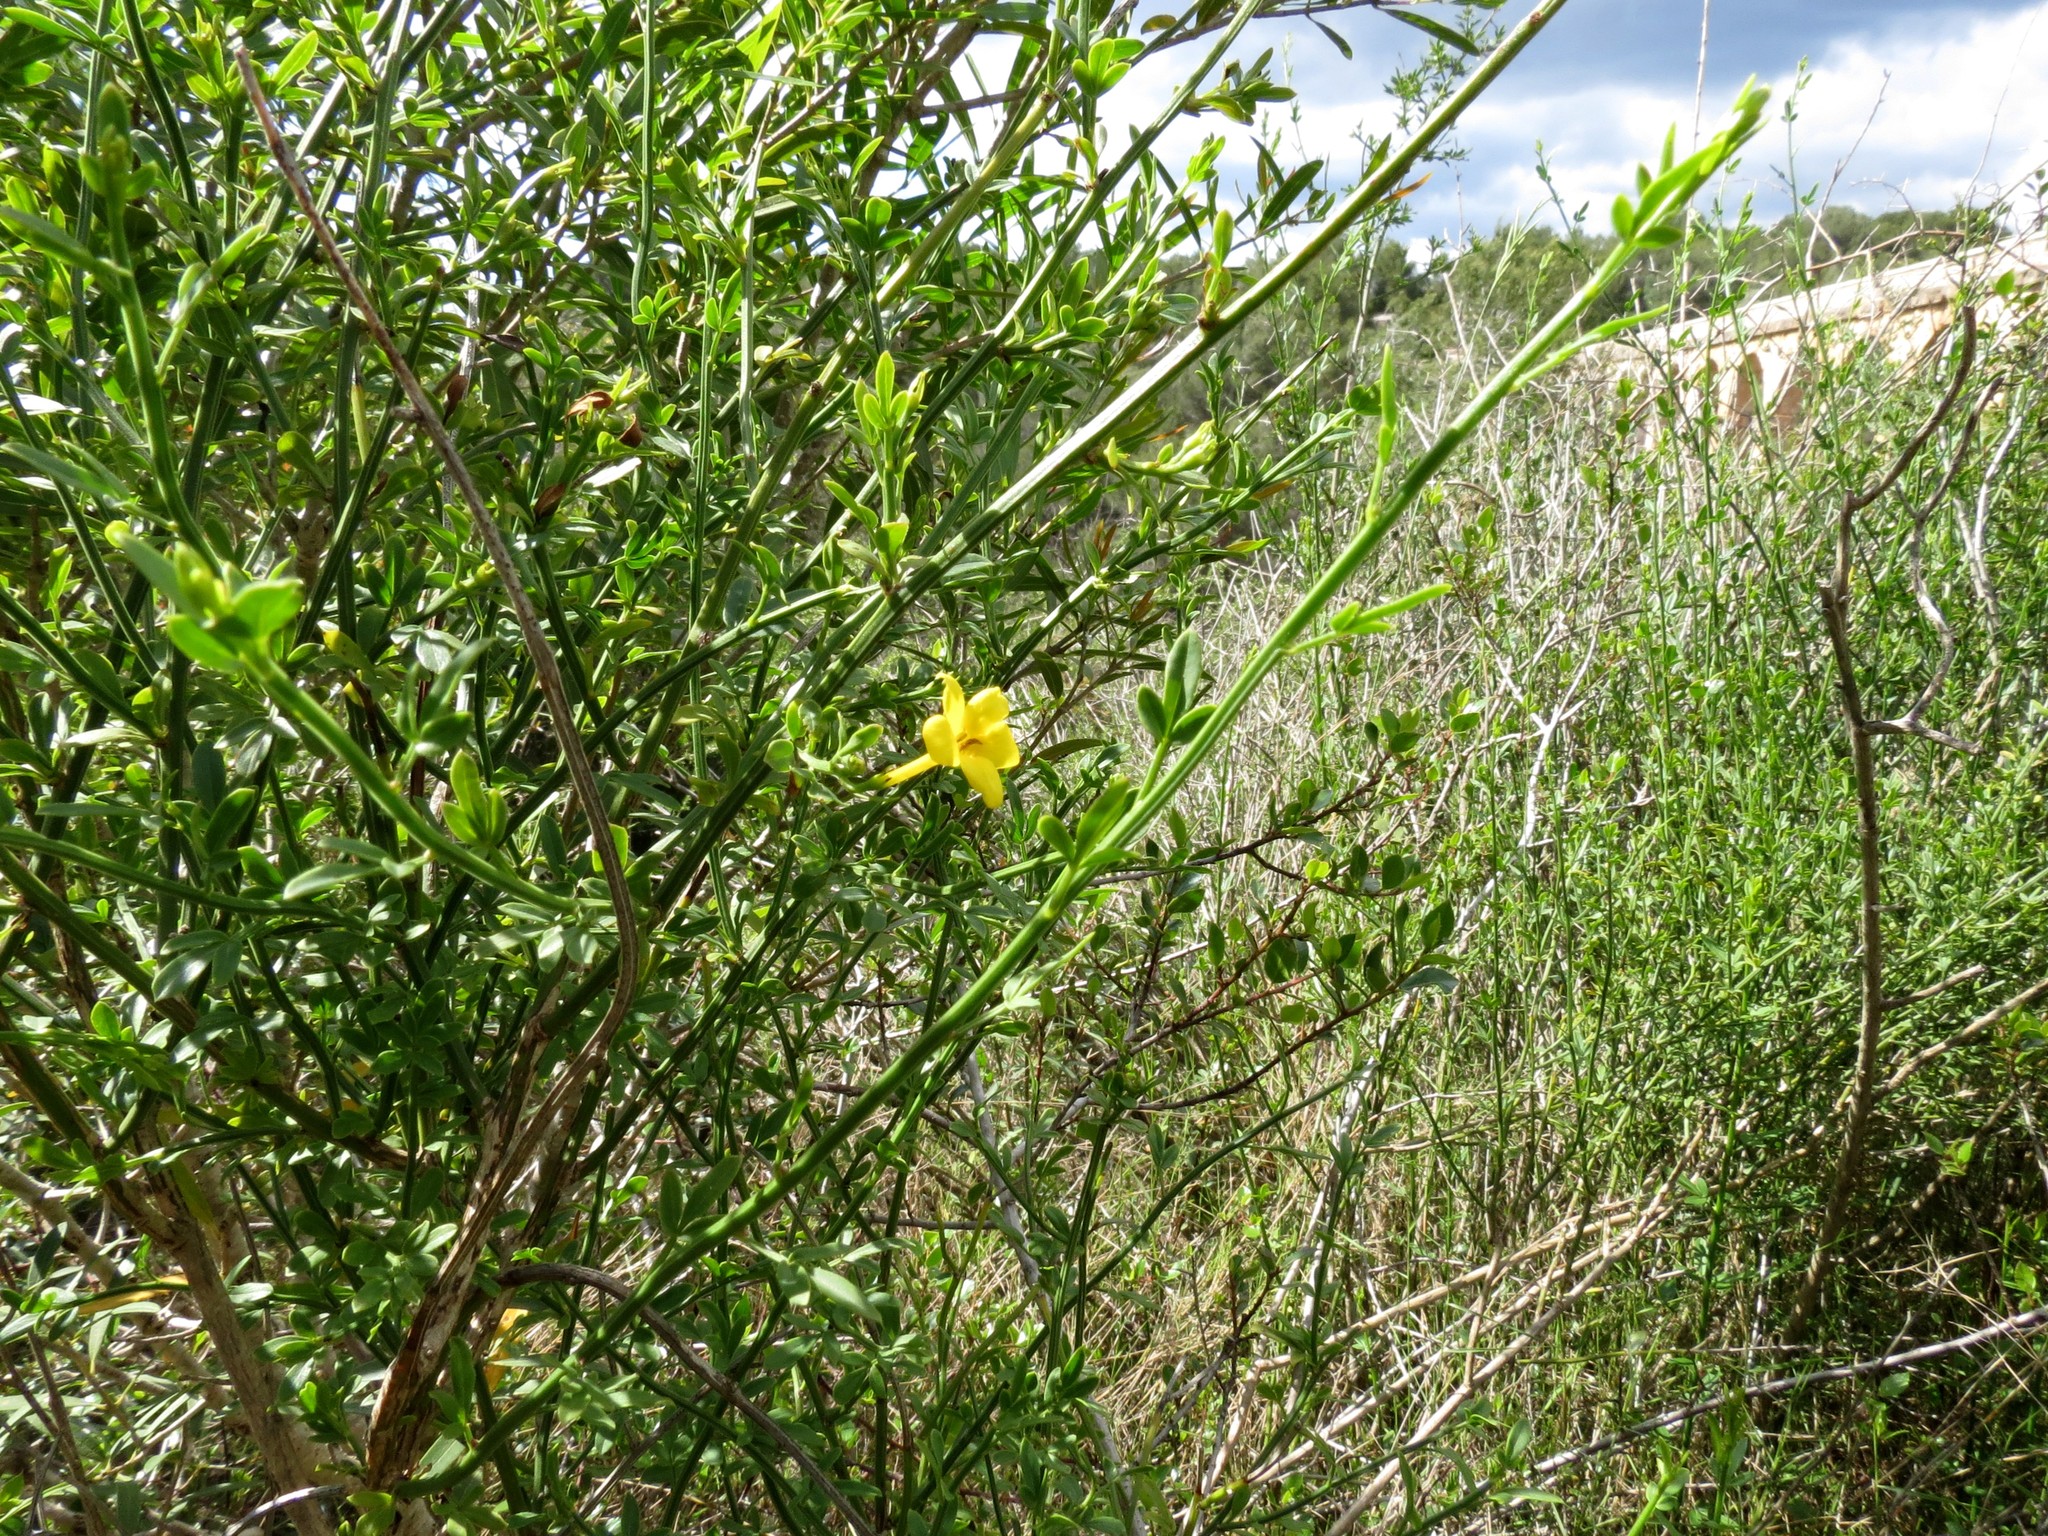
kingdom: Plantae
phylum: Tracheophyta
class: Magnoliopsida
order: Lamiales
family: Oleaceae
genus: Chrysojasminum
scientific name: Chrysojasminum fruticans
